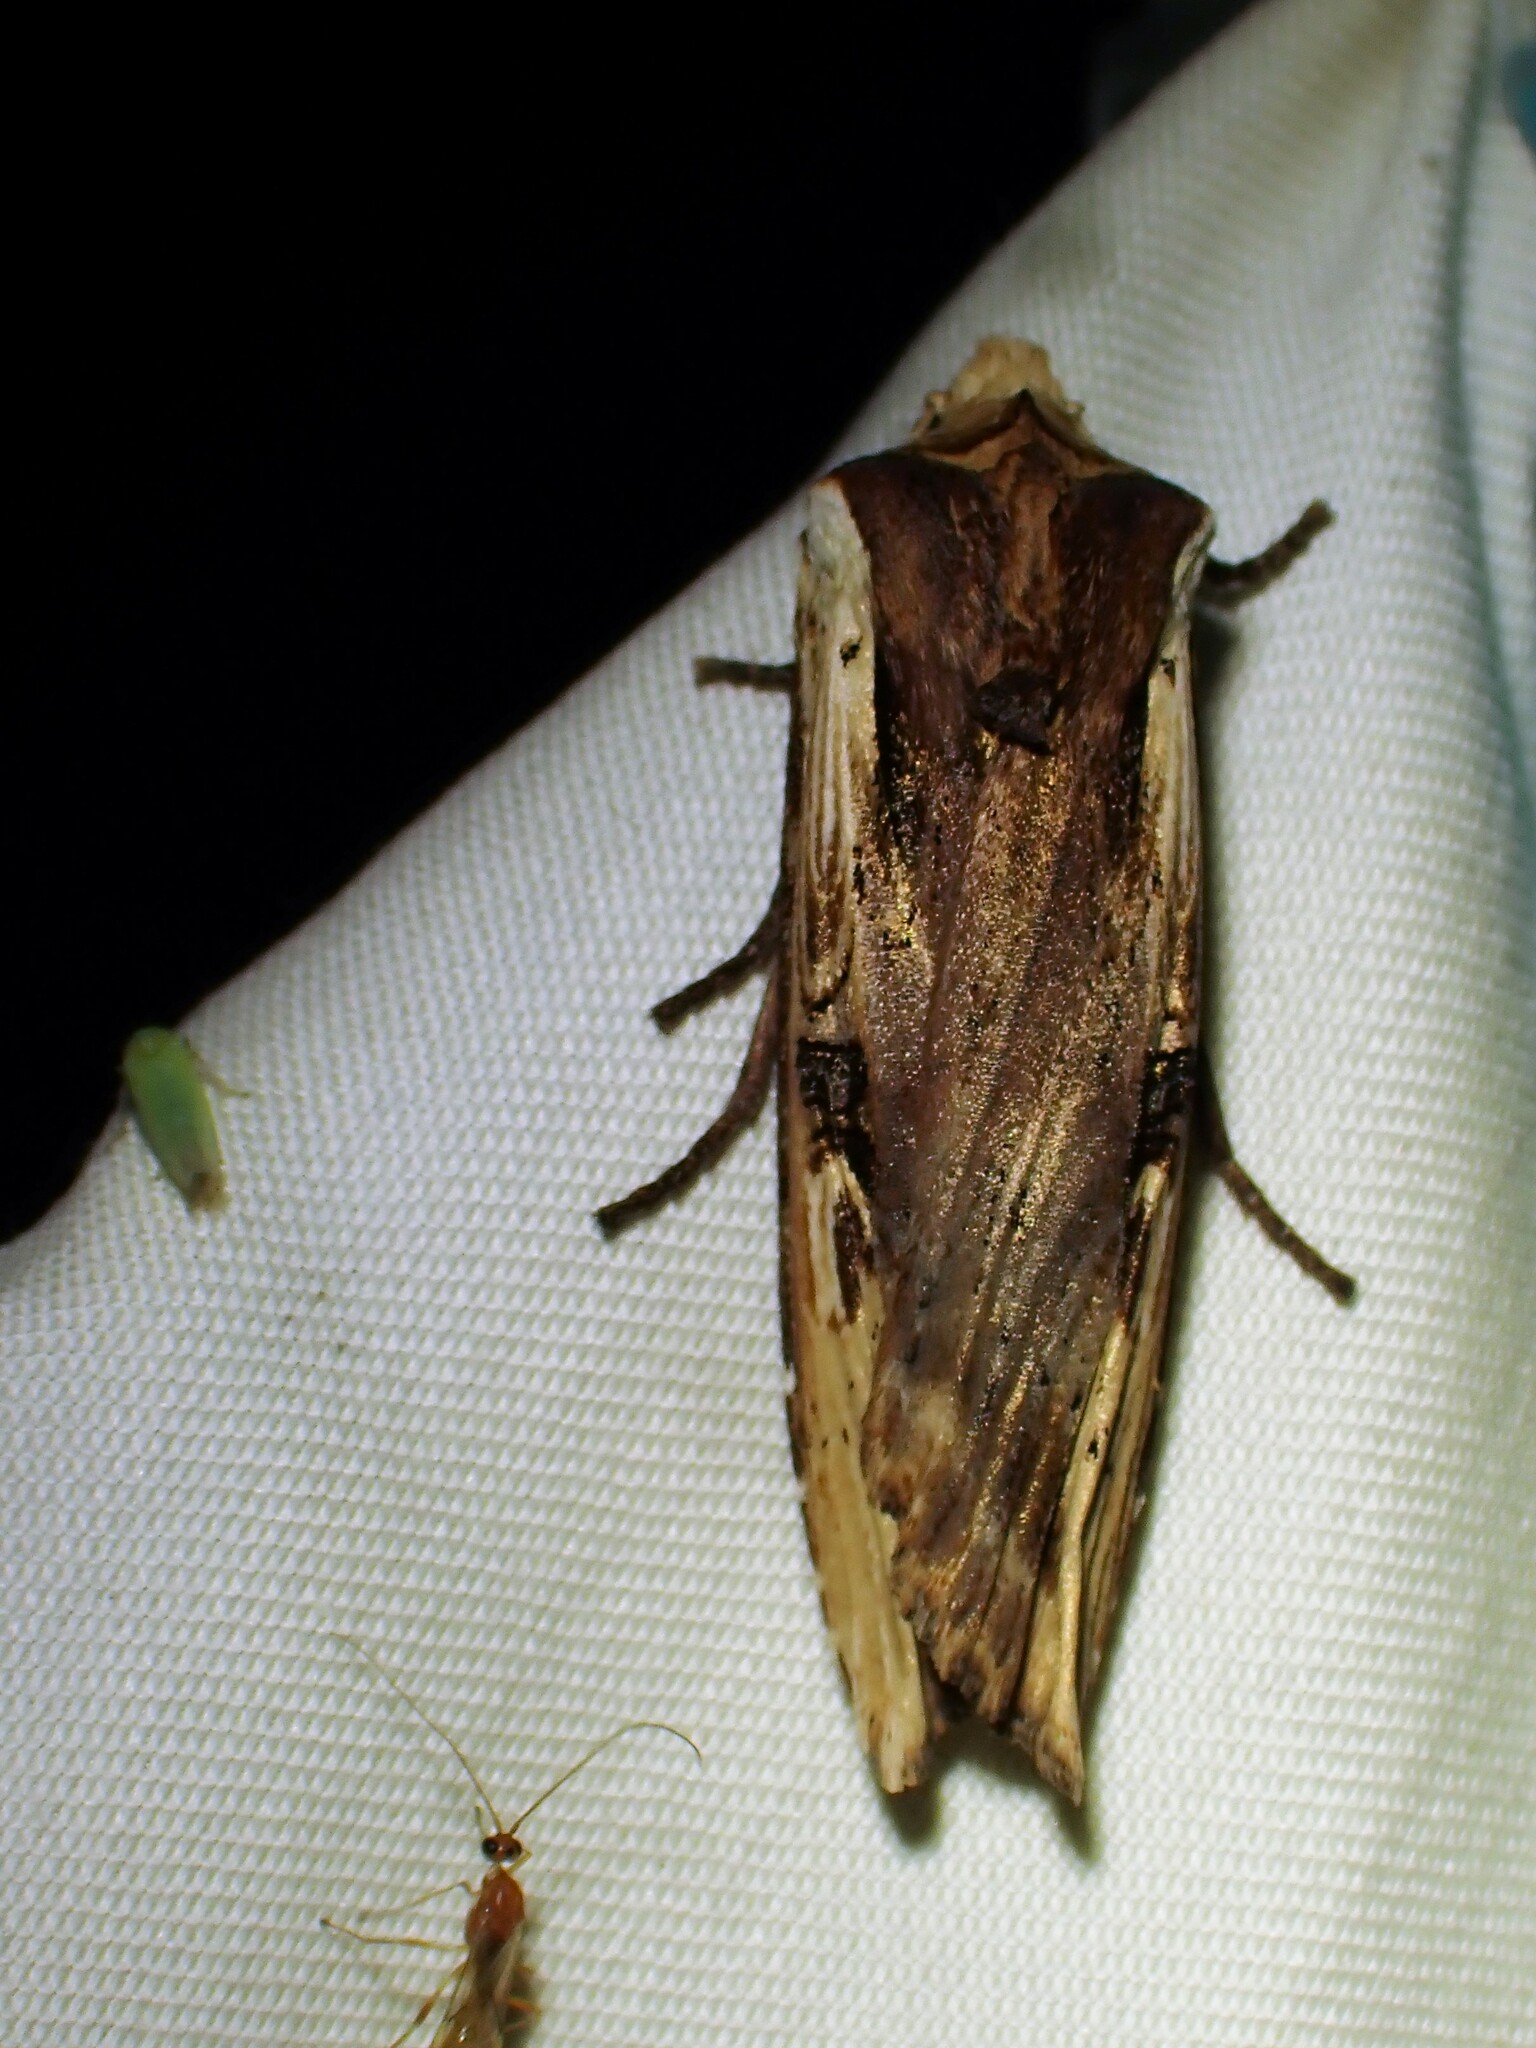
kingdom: Animalia
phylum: Arthropoda
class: Insecta
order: Lepidoptera
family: Noctuidae
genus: Xylena
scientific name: Xylena curvimacula
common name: Dot-and-dash swordgrass moth
